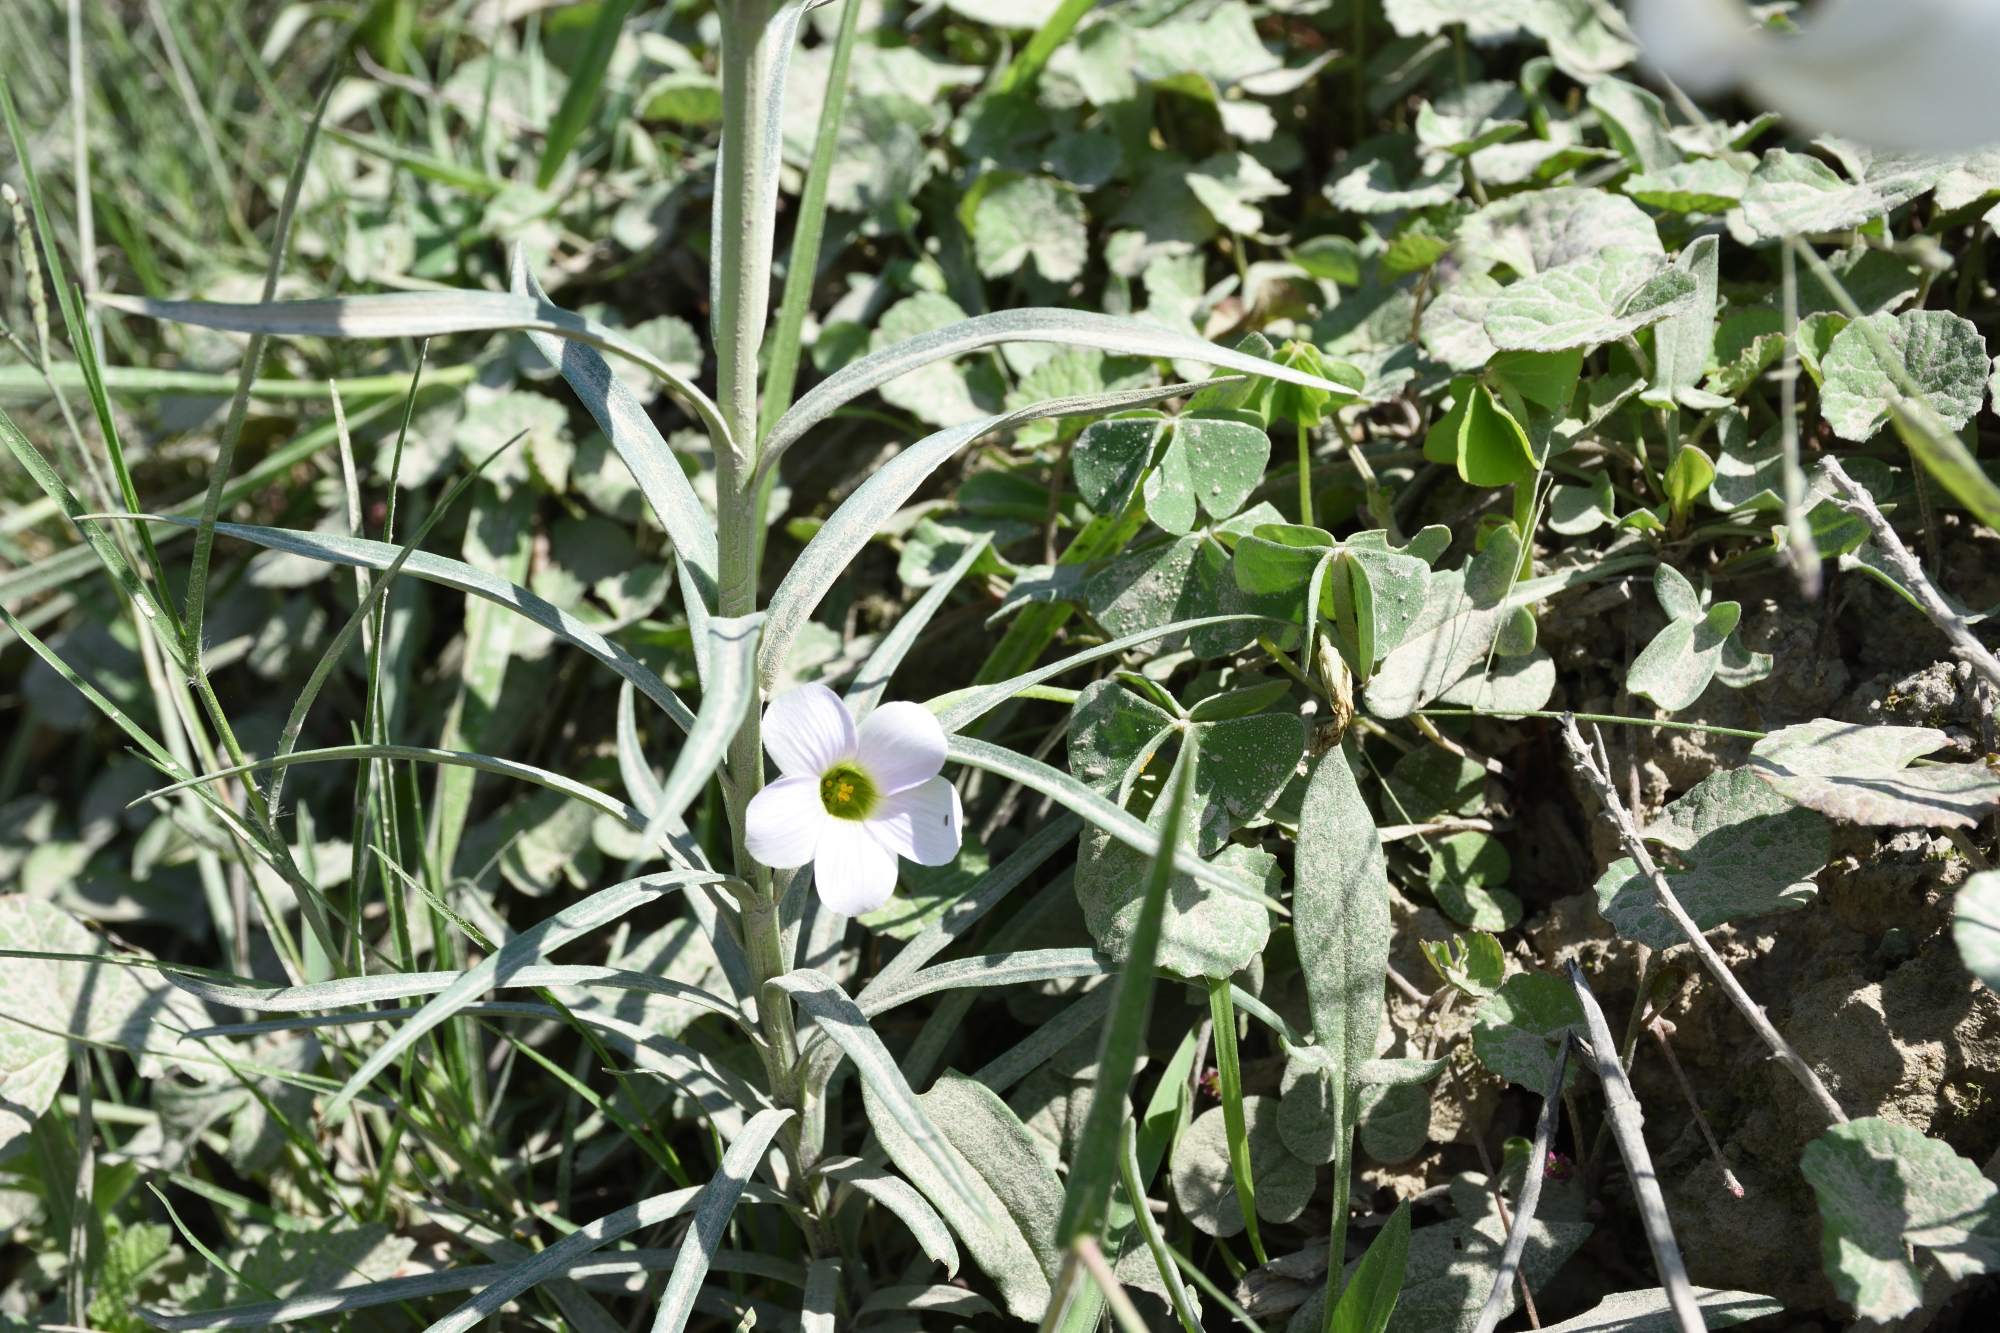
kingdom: Plantae
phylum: Tracheophyta
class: Magnoliopsida
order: Oxalidales
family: Oxalidaceae
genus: Oxalis
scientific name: Oxalis smithiana
